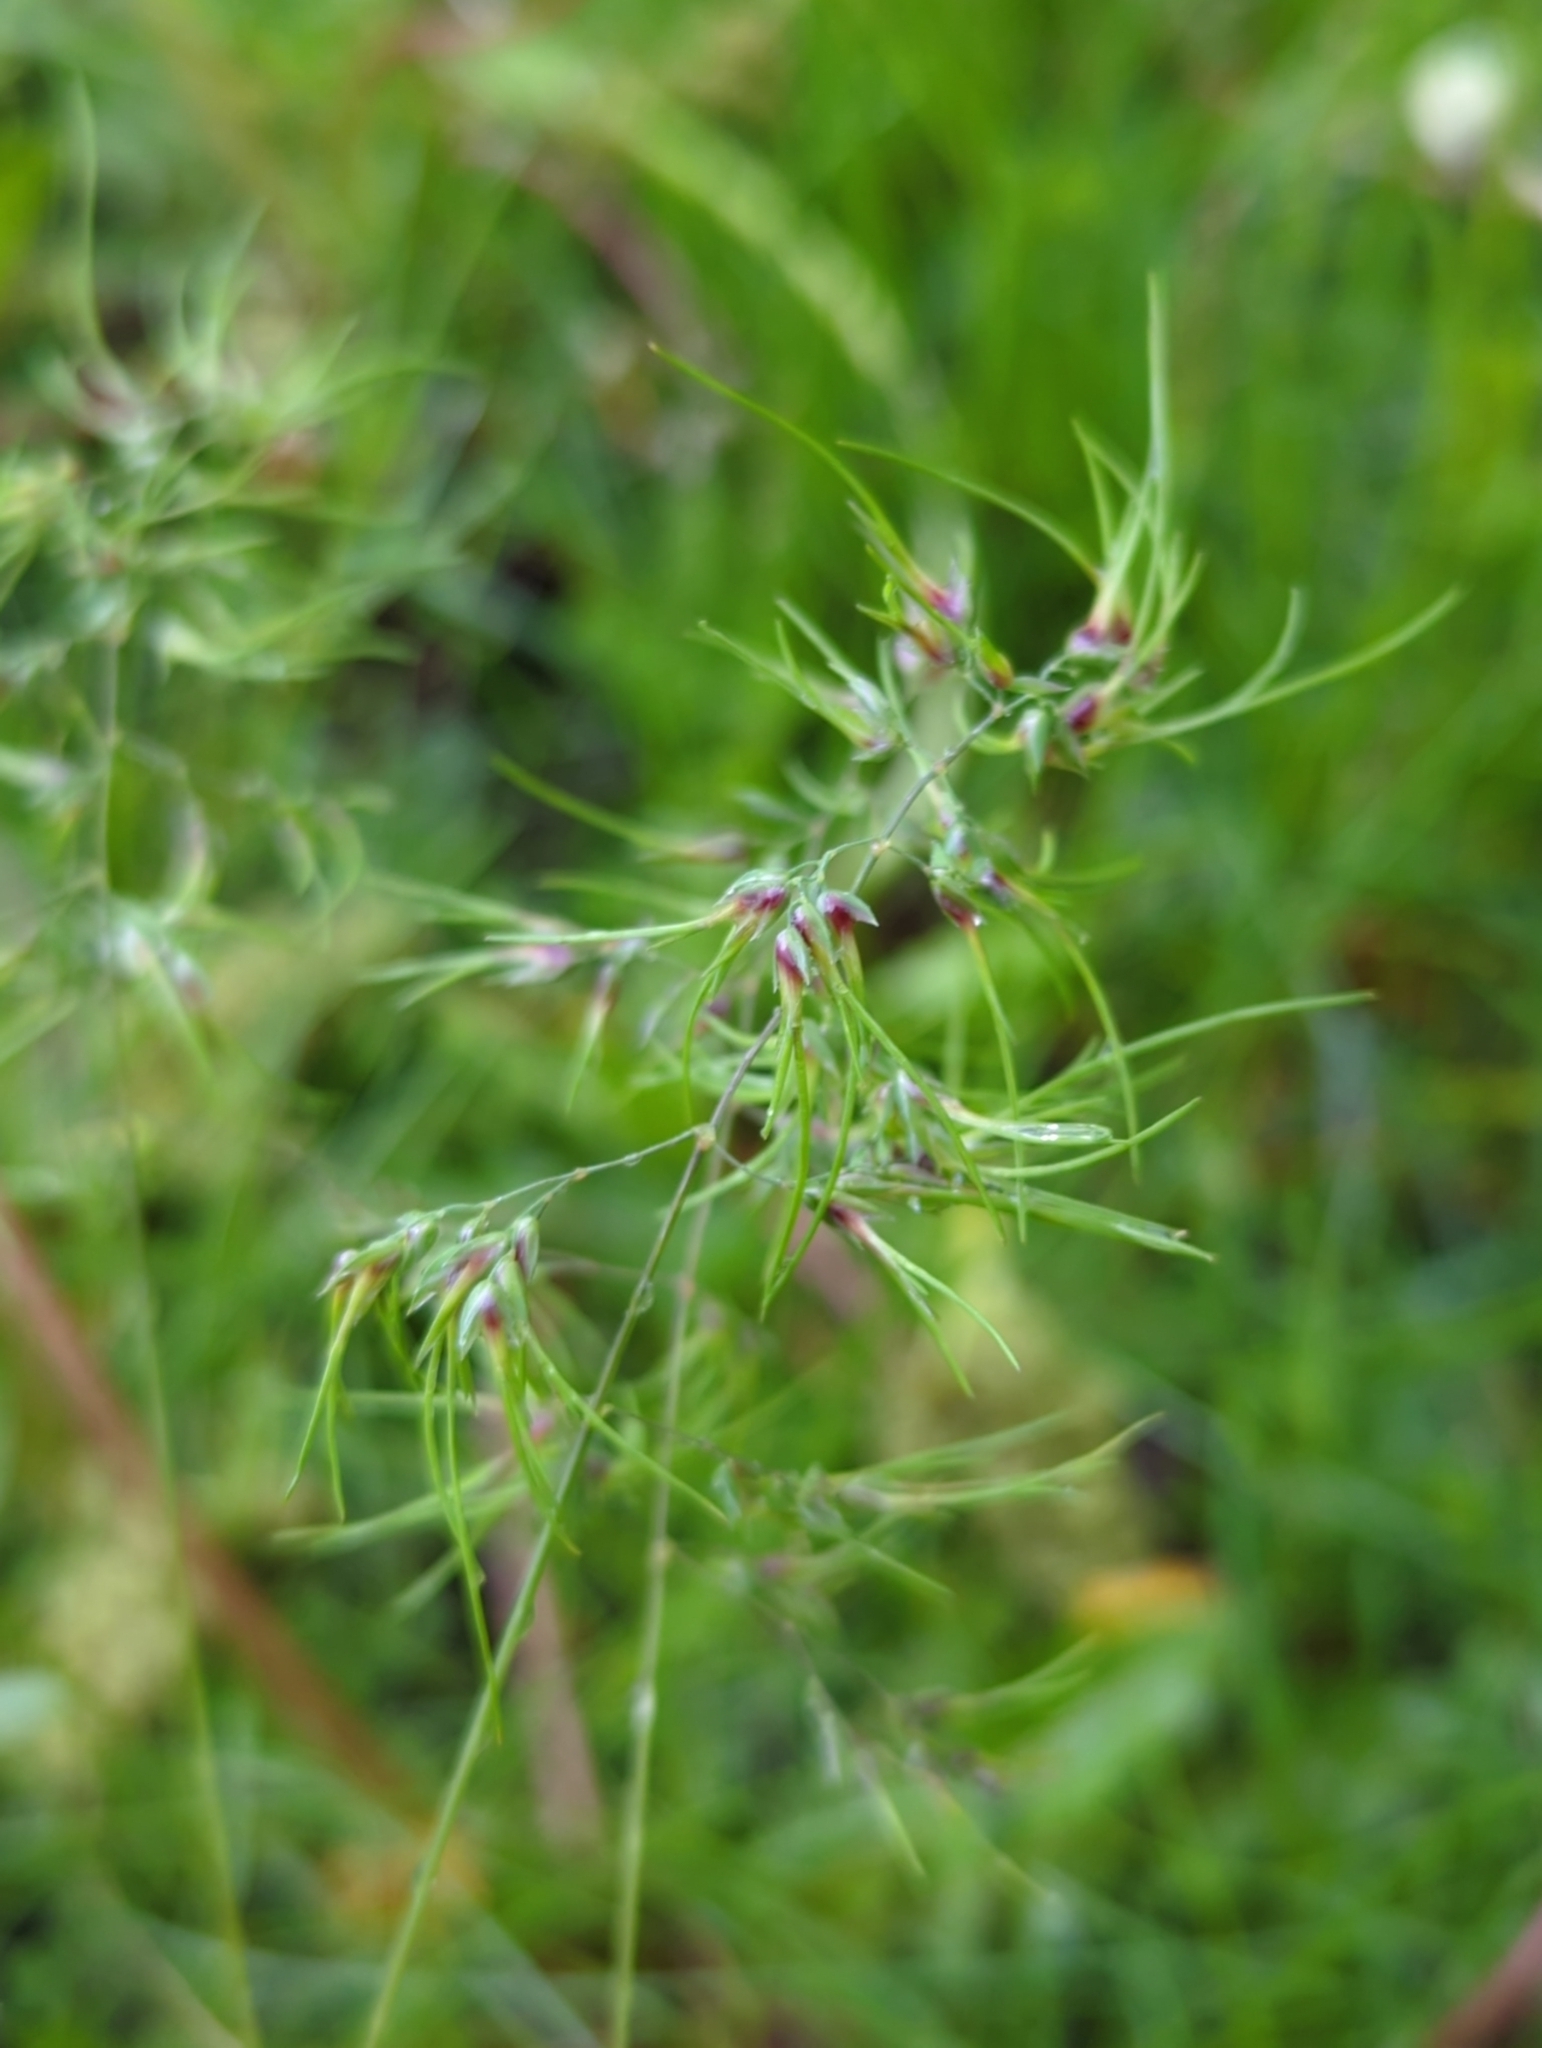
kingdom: Plantae
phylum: Tracheophyta
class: Liliopsida
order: Poales
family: Poaceae
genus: Poa
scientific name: Poa bulbosa
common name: Bulbous bluegrass
